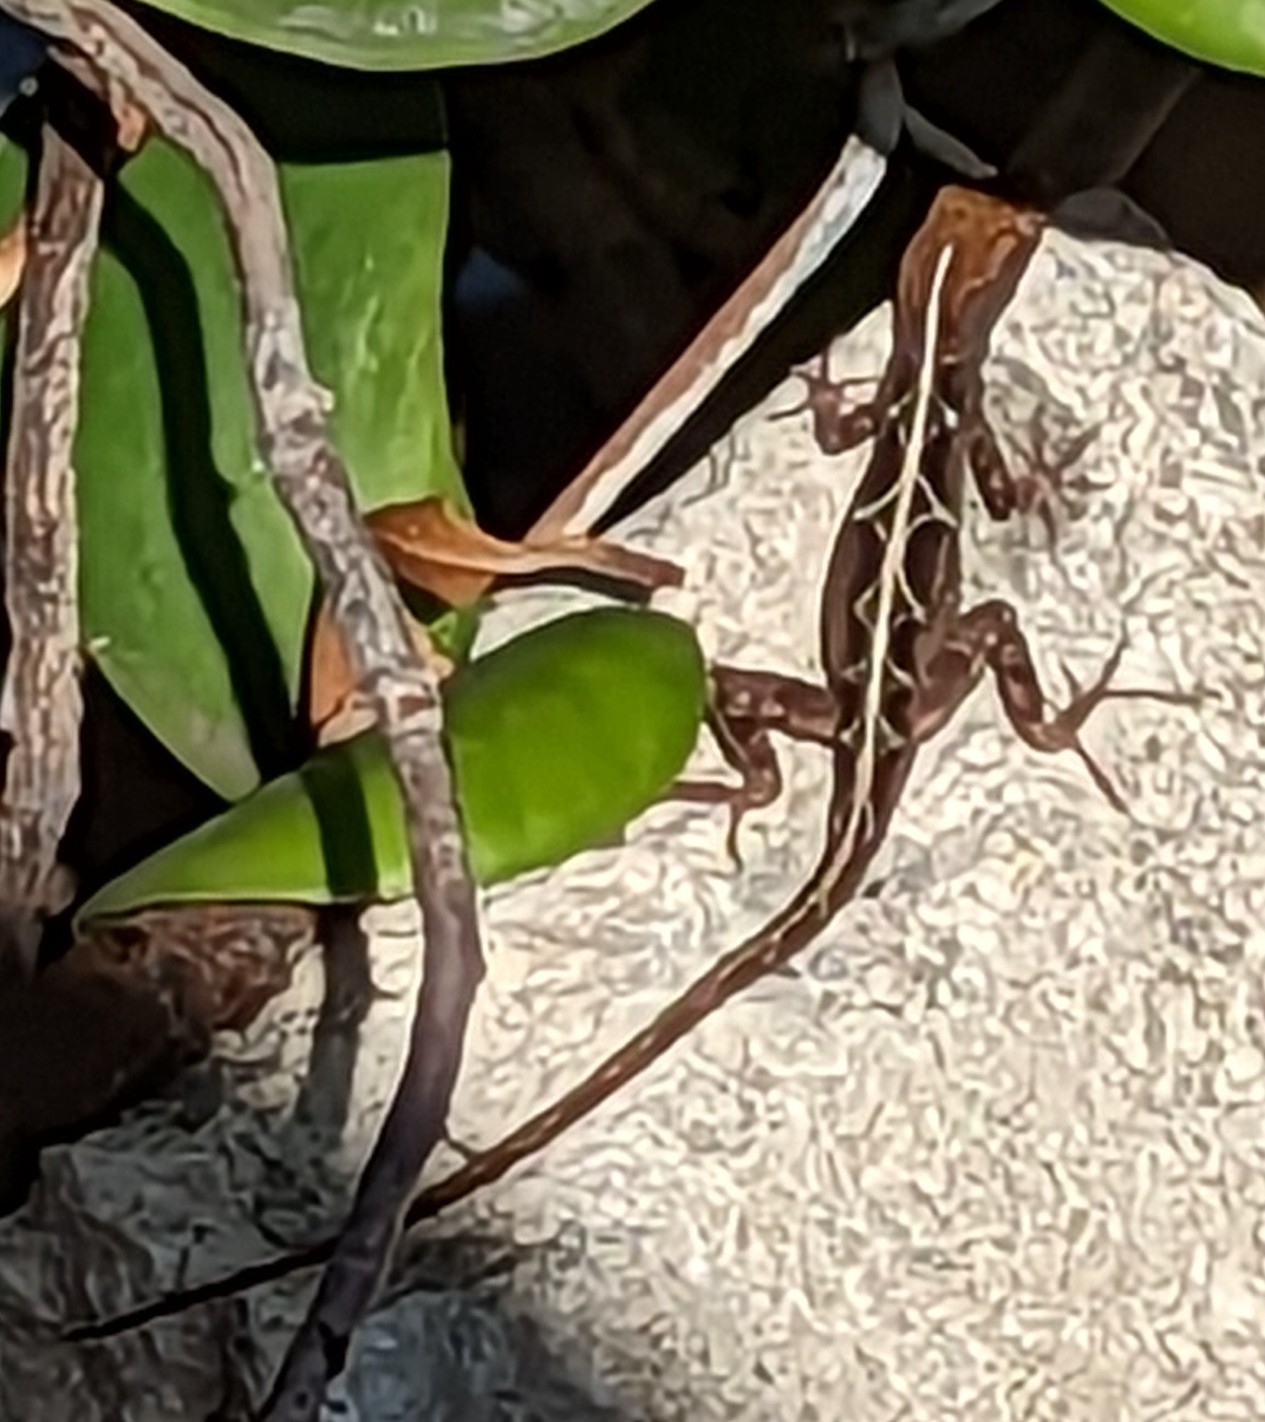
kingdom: Animalia
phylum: Chordata
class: Squamata
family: Dactyloidae
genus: Anolis
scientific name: Anolis sagrei
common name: Brown anole
